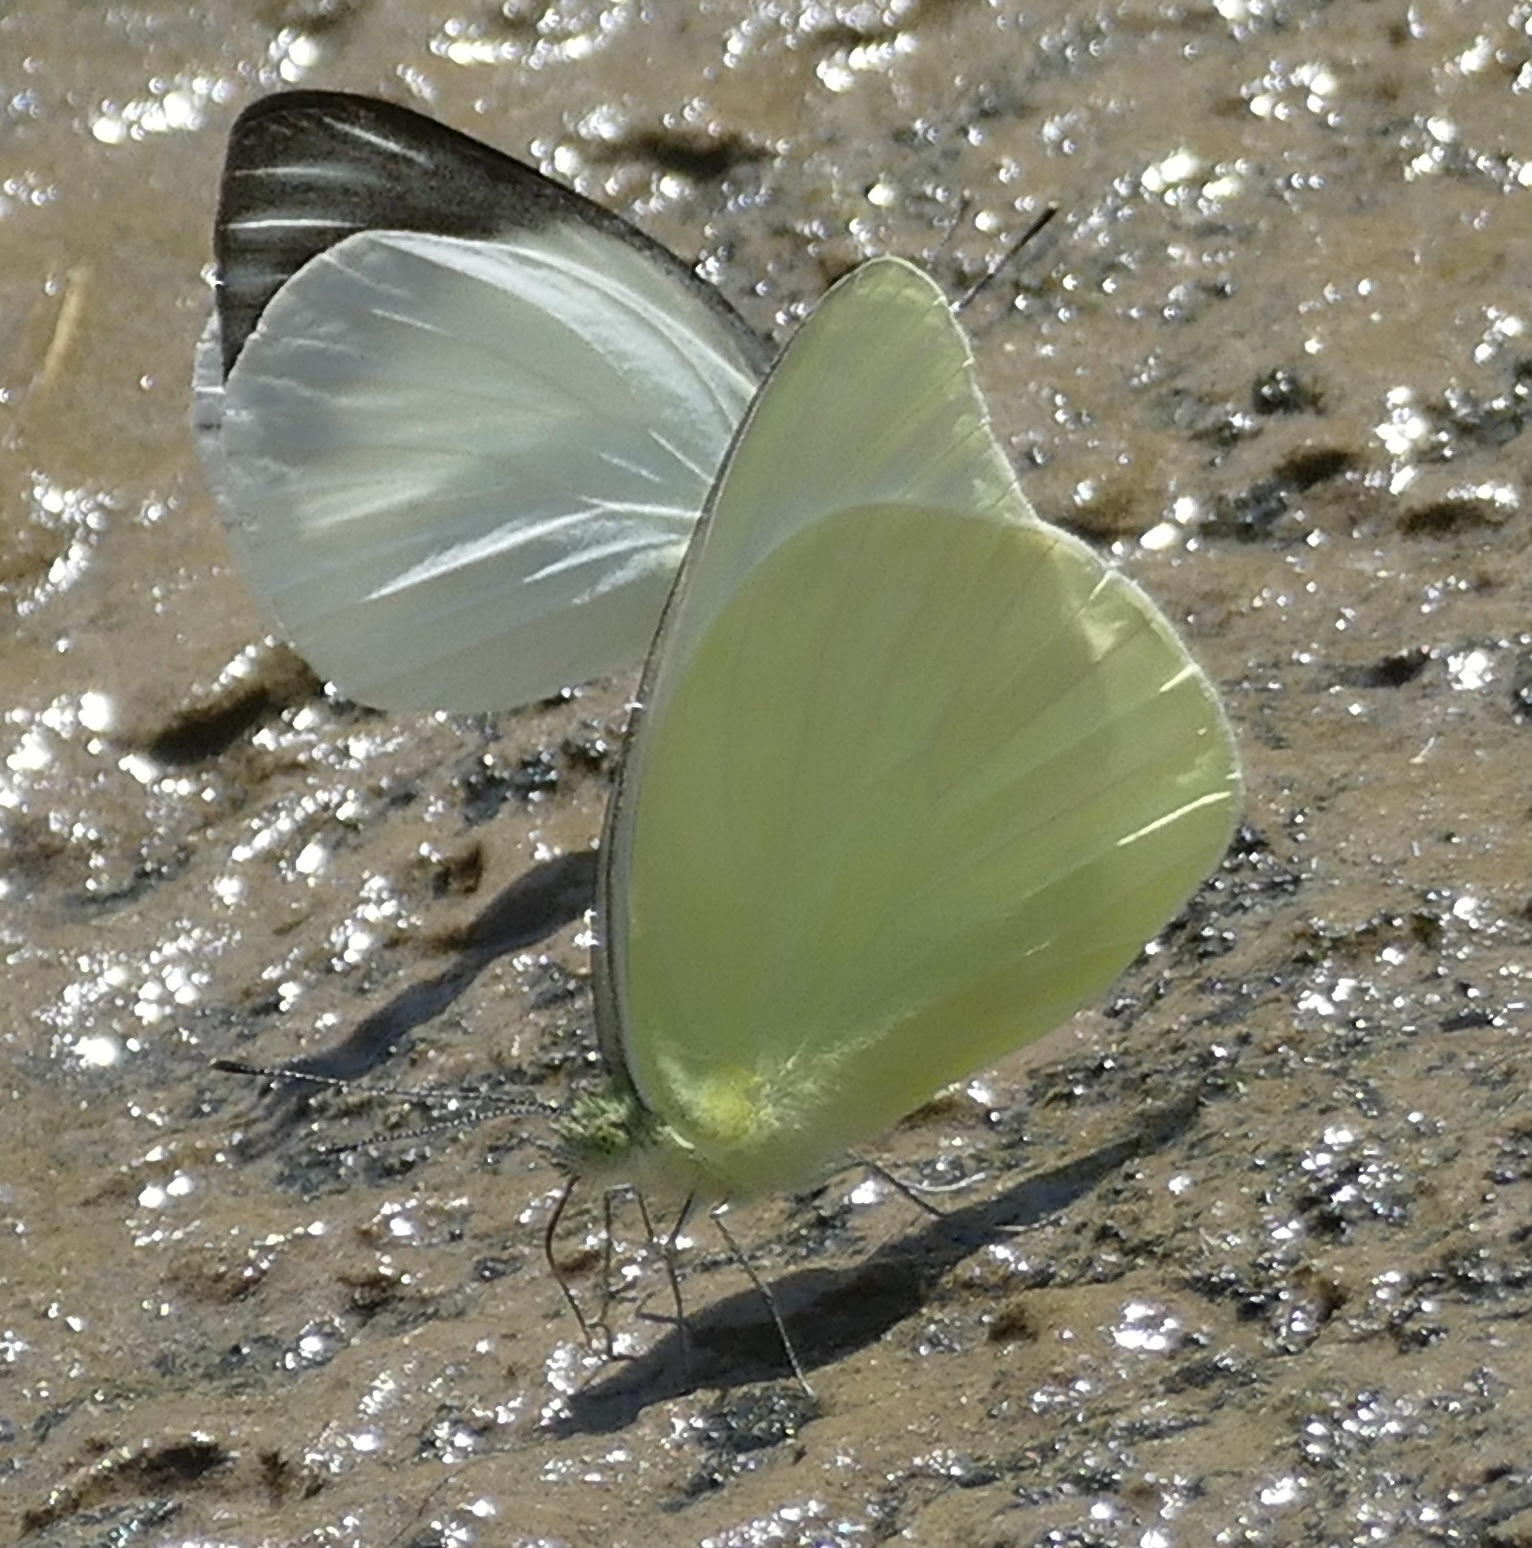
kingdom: Animalia
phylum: Arthropoda
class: Insecta
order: Lepidoptera
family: Pieridae
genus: Appias
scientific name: Appias aegis
